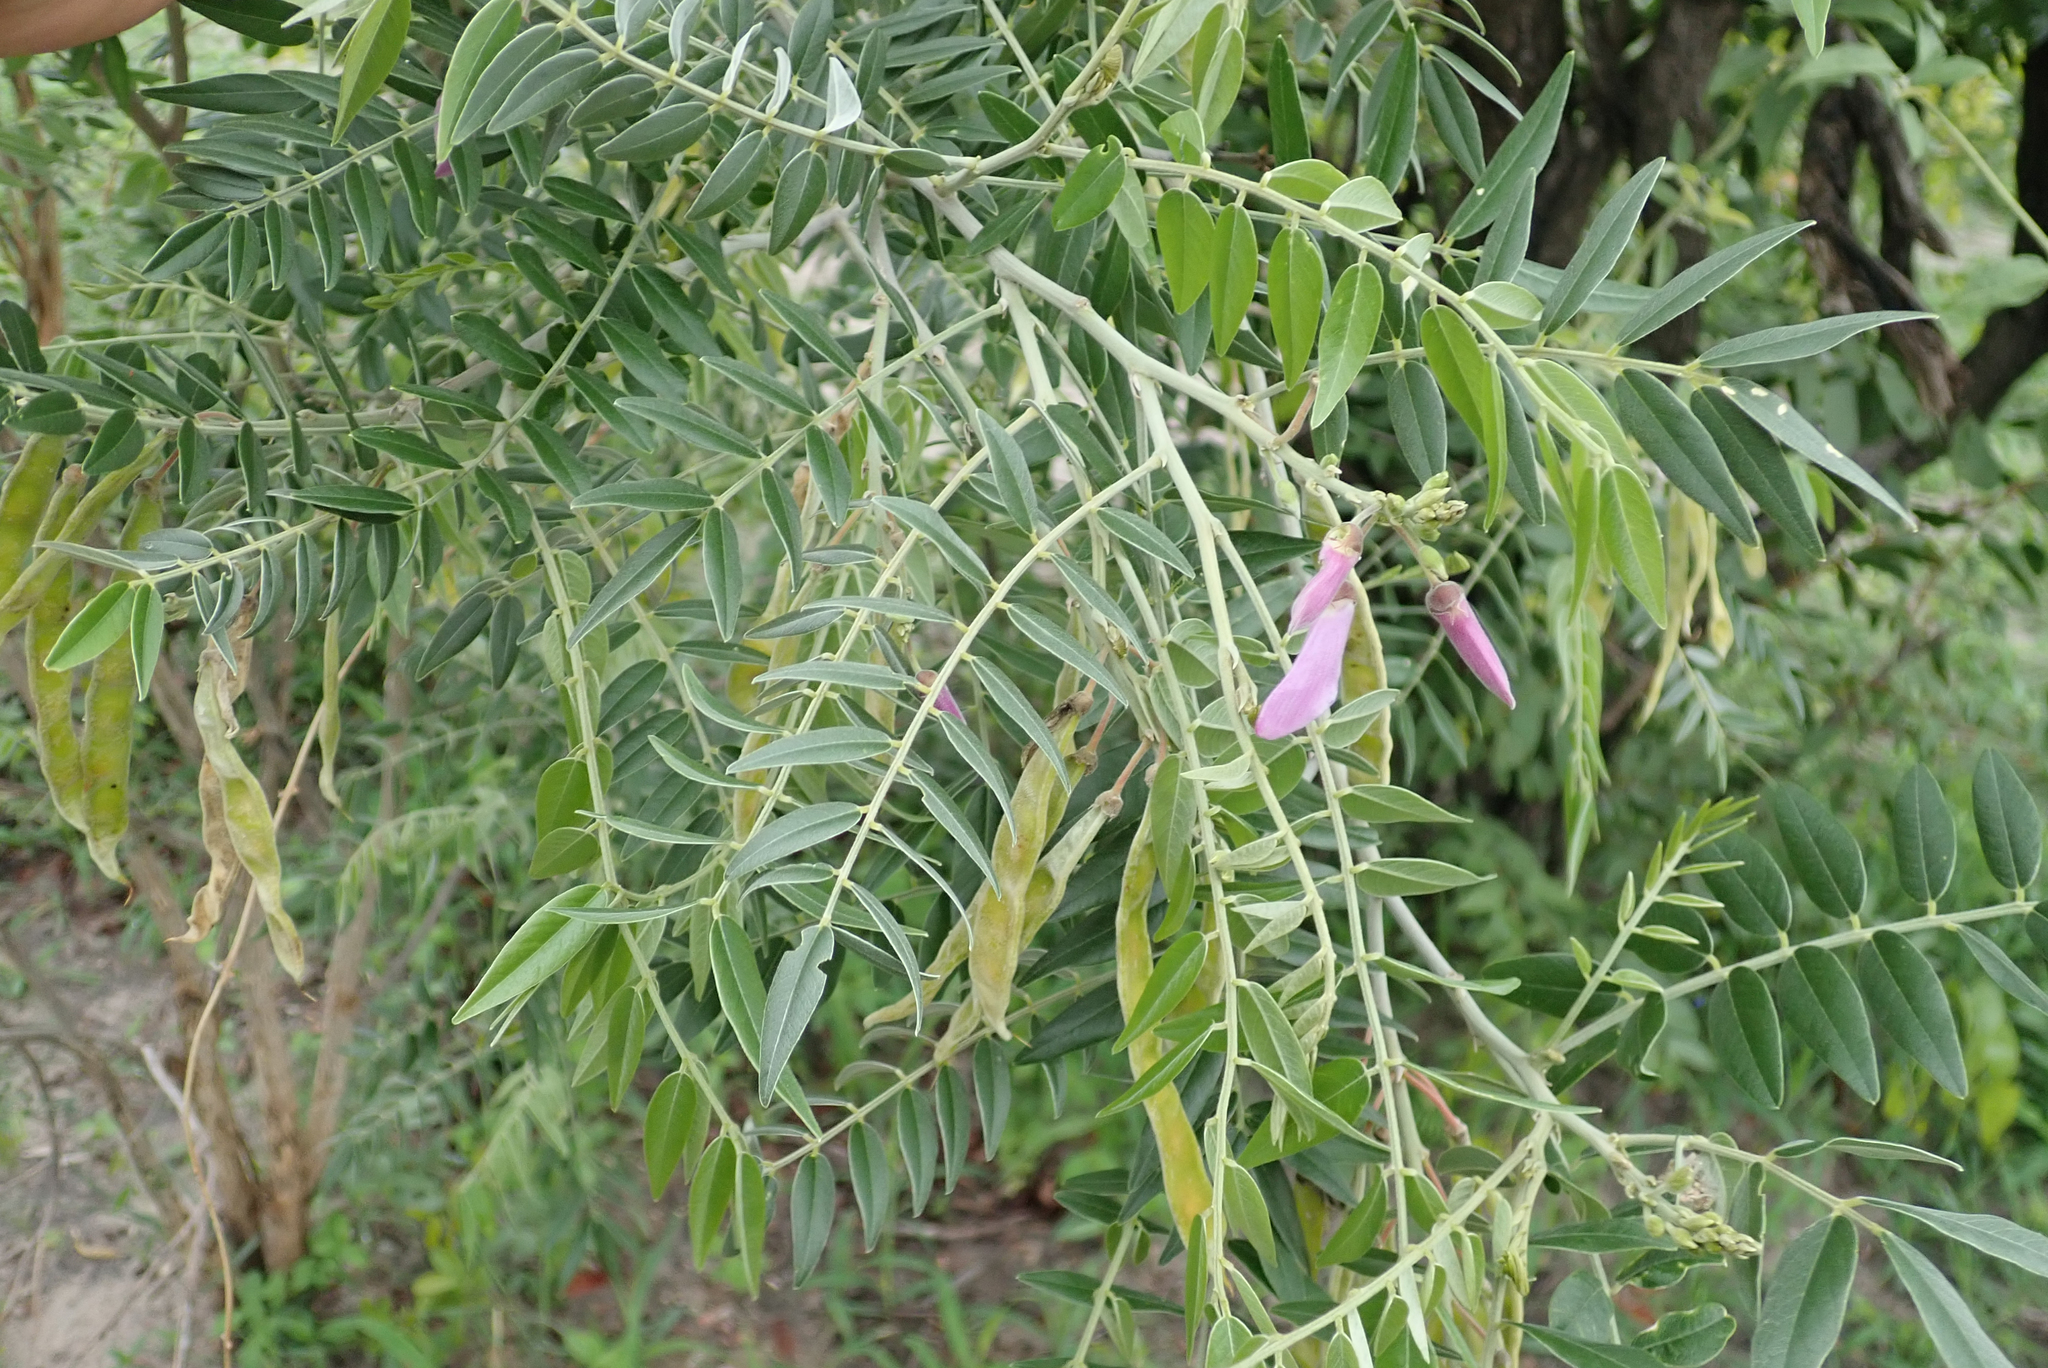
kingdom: Plantae
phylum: Tracheophyta
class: Magnoliopsida
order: Fabales
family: Fabaceae
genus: Mundulea
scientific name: Mundulea sericea
